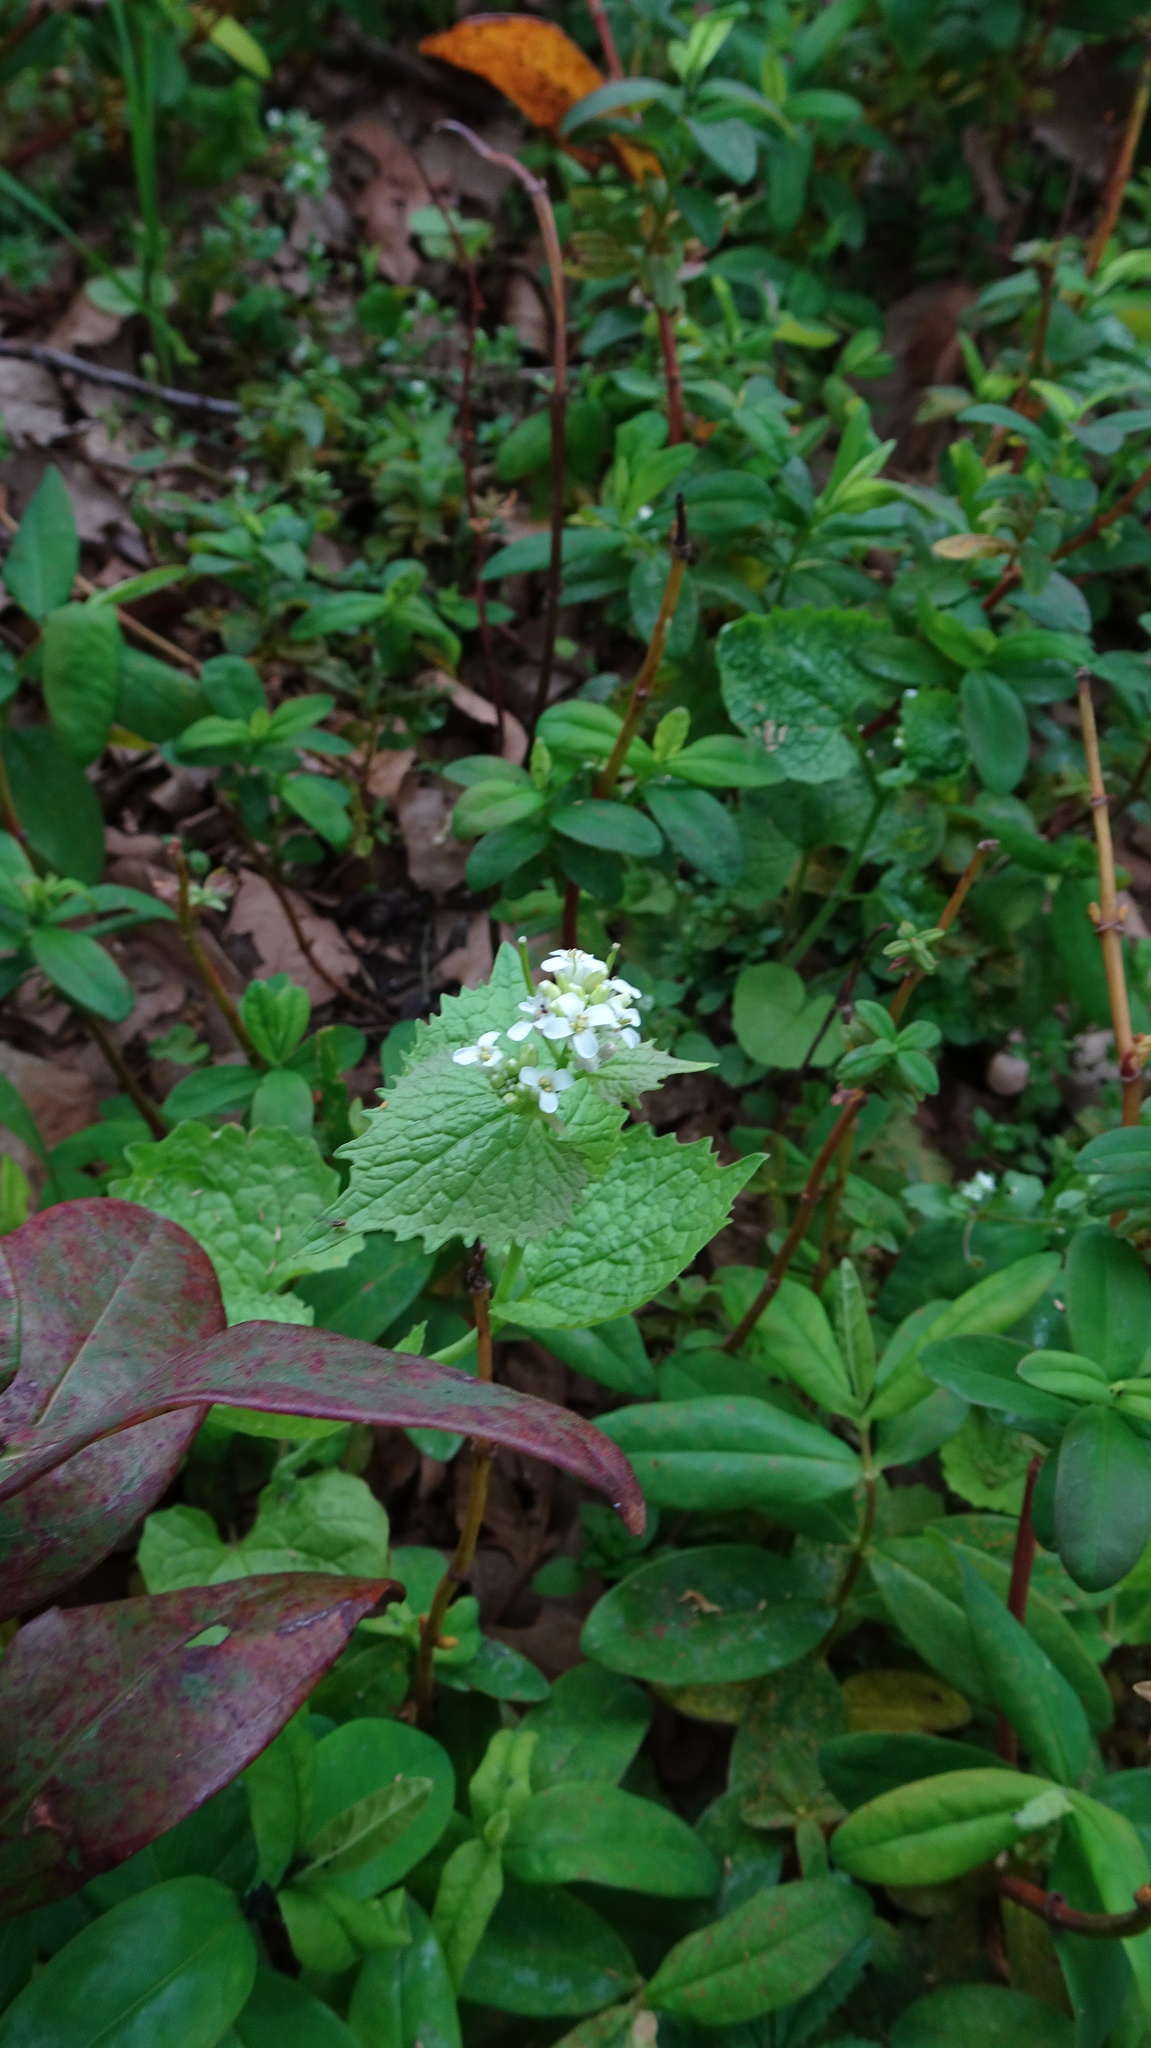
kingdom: Plantae
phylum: Tracheophyta
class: Magnoliopsida
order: Brassicales
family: Brassicaceae
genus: Alliaria
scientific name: Alliaria petiolata
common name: Garlic mustard
